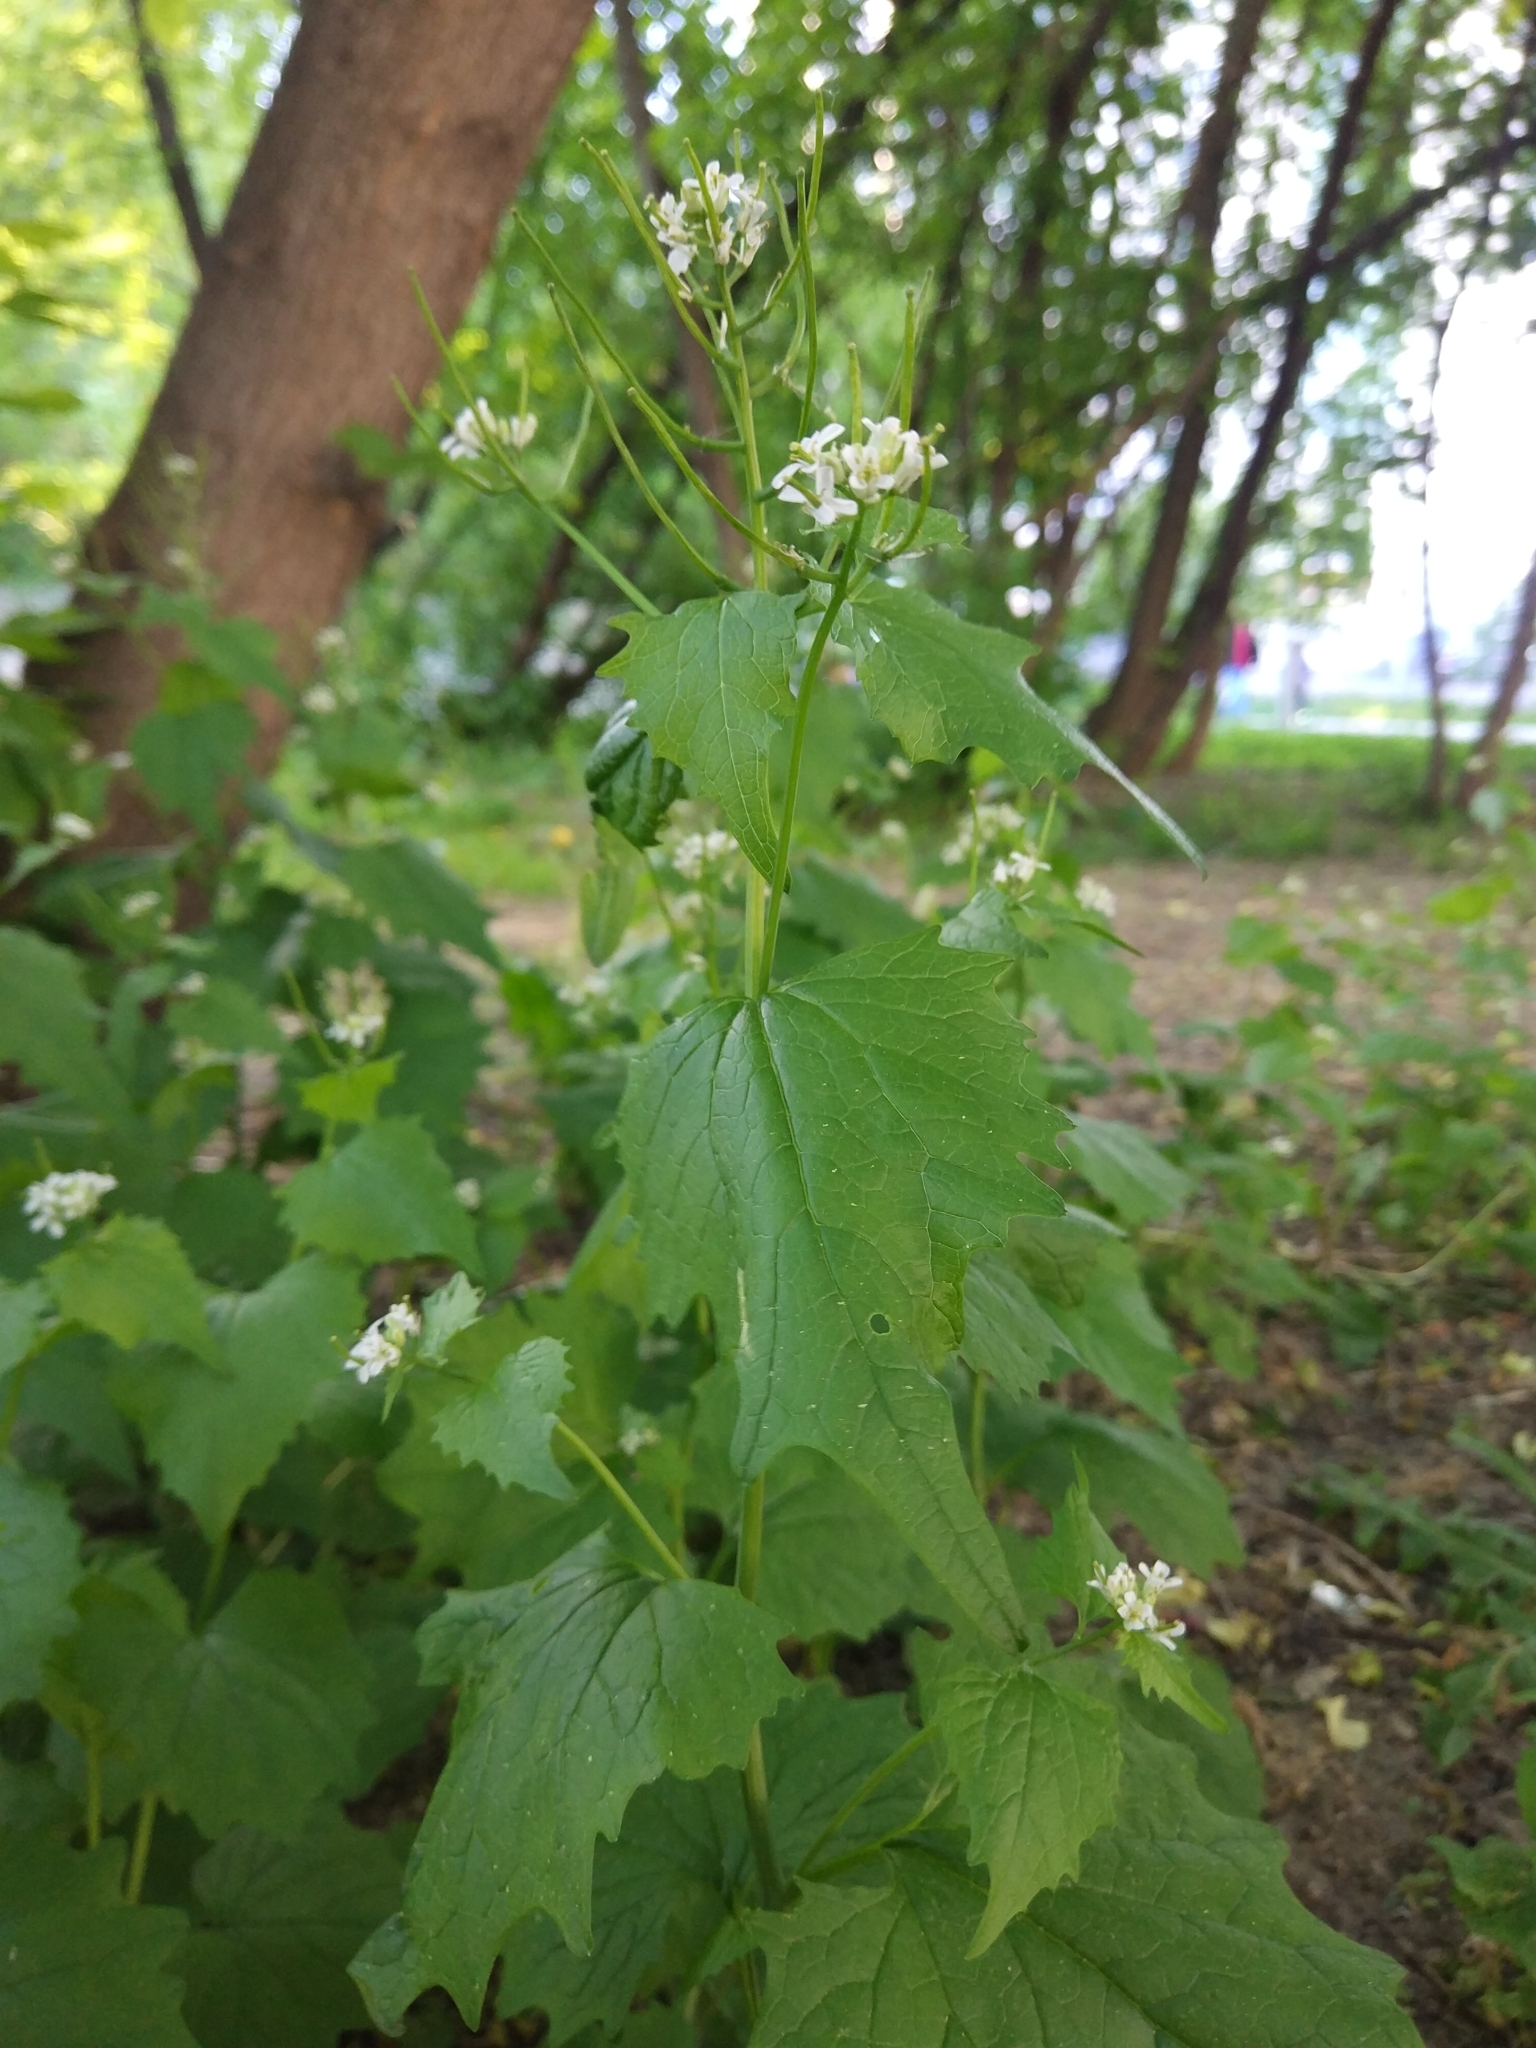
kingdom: Plantae
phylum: Tracheophyta
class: Magnoliopsida
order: Brassicales
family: Brassicaceae
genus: Alliaria
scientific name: Alliaria petiolata
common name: Garlic mustard
